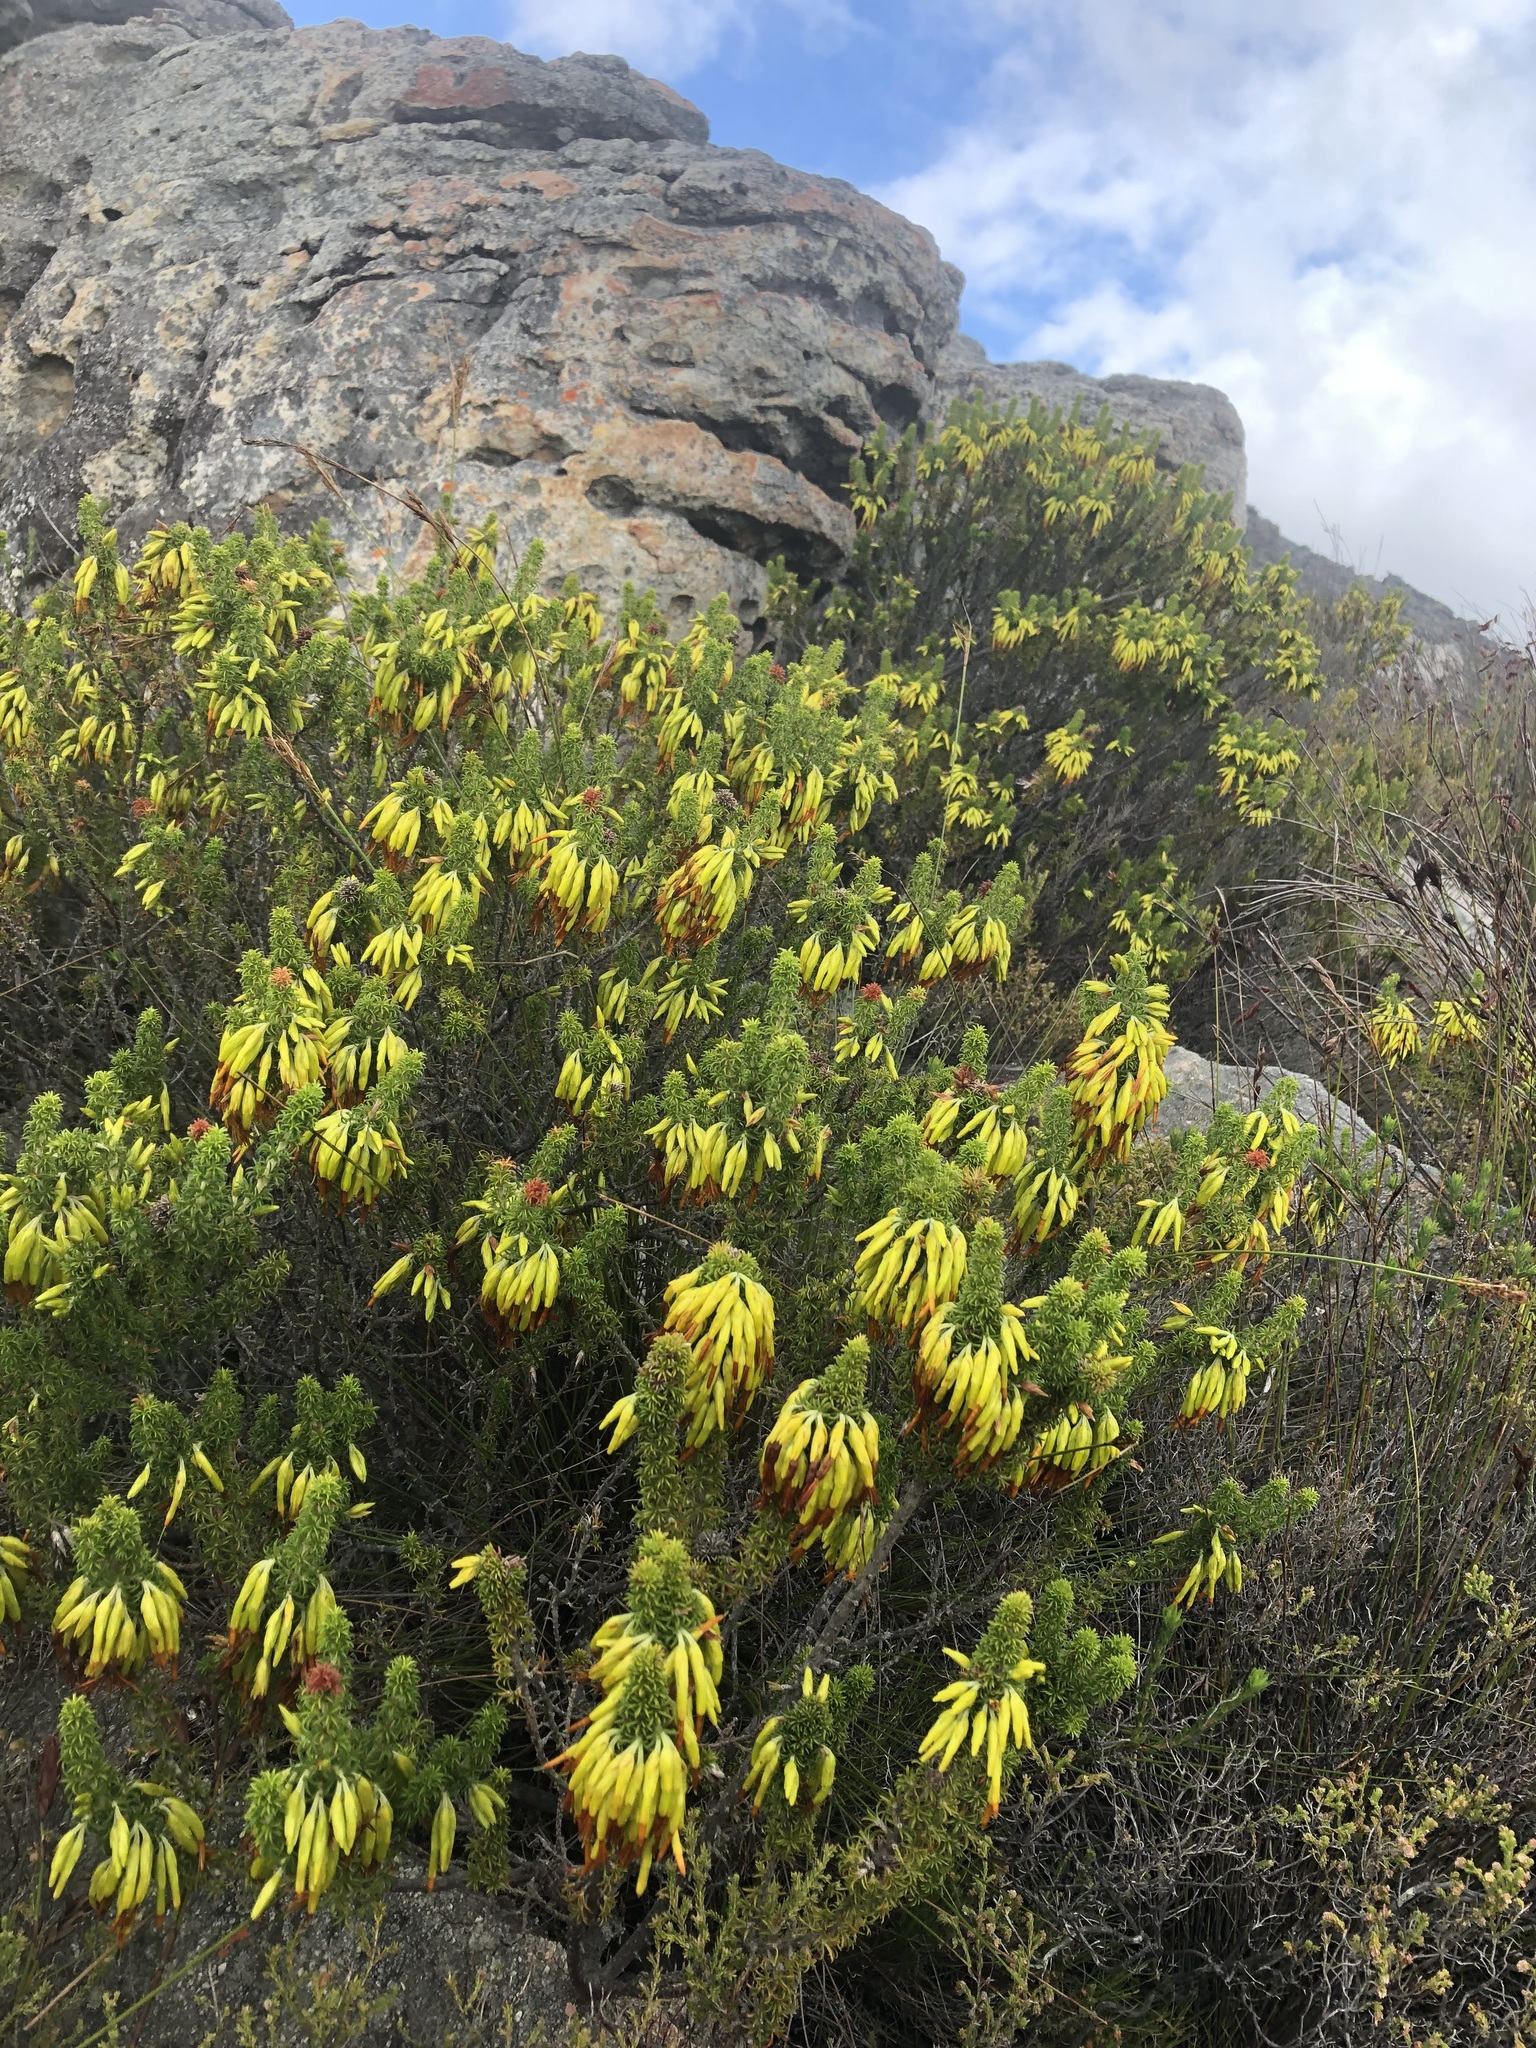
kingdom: Plantae
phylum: Tracheophyta
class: Magnoliopsida
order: Ericales
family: Ericaceae
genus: Erica
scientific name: Erica coccinea
